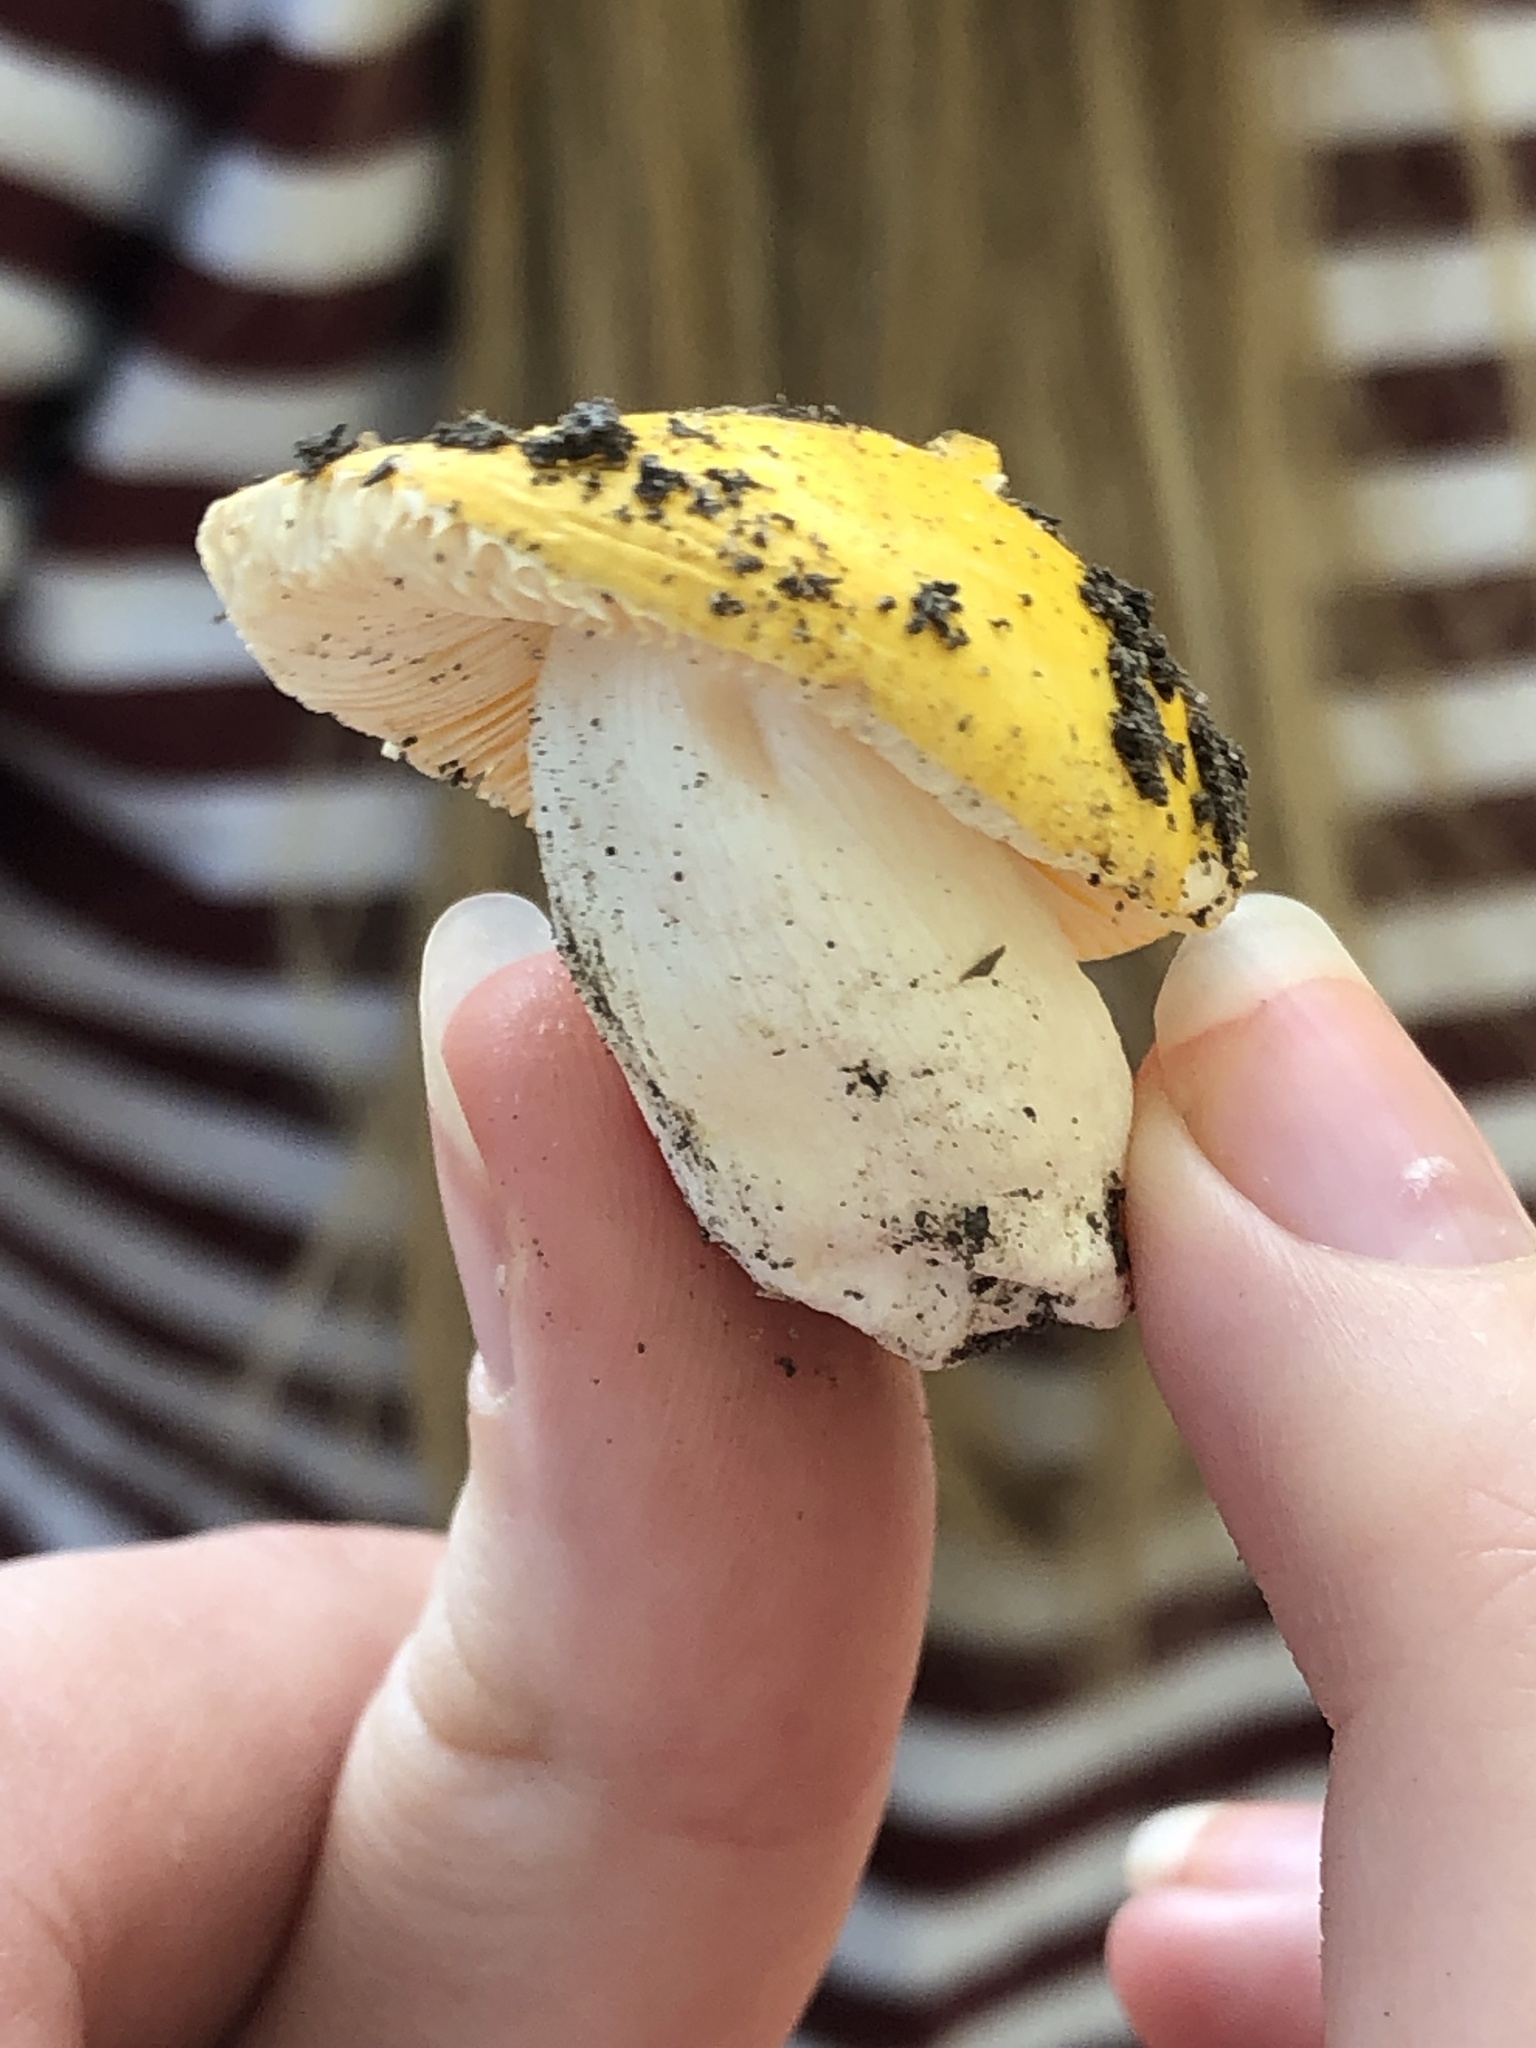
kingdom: Fungi
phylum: Basidiomycota
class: Agaricomycetes
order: Russulales
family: Russulaceae
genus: Russula
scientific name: Russula claroflava
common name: The yellow swamp brittlegill
